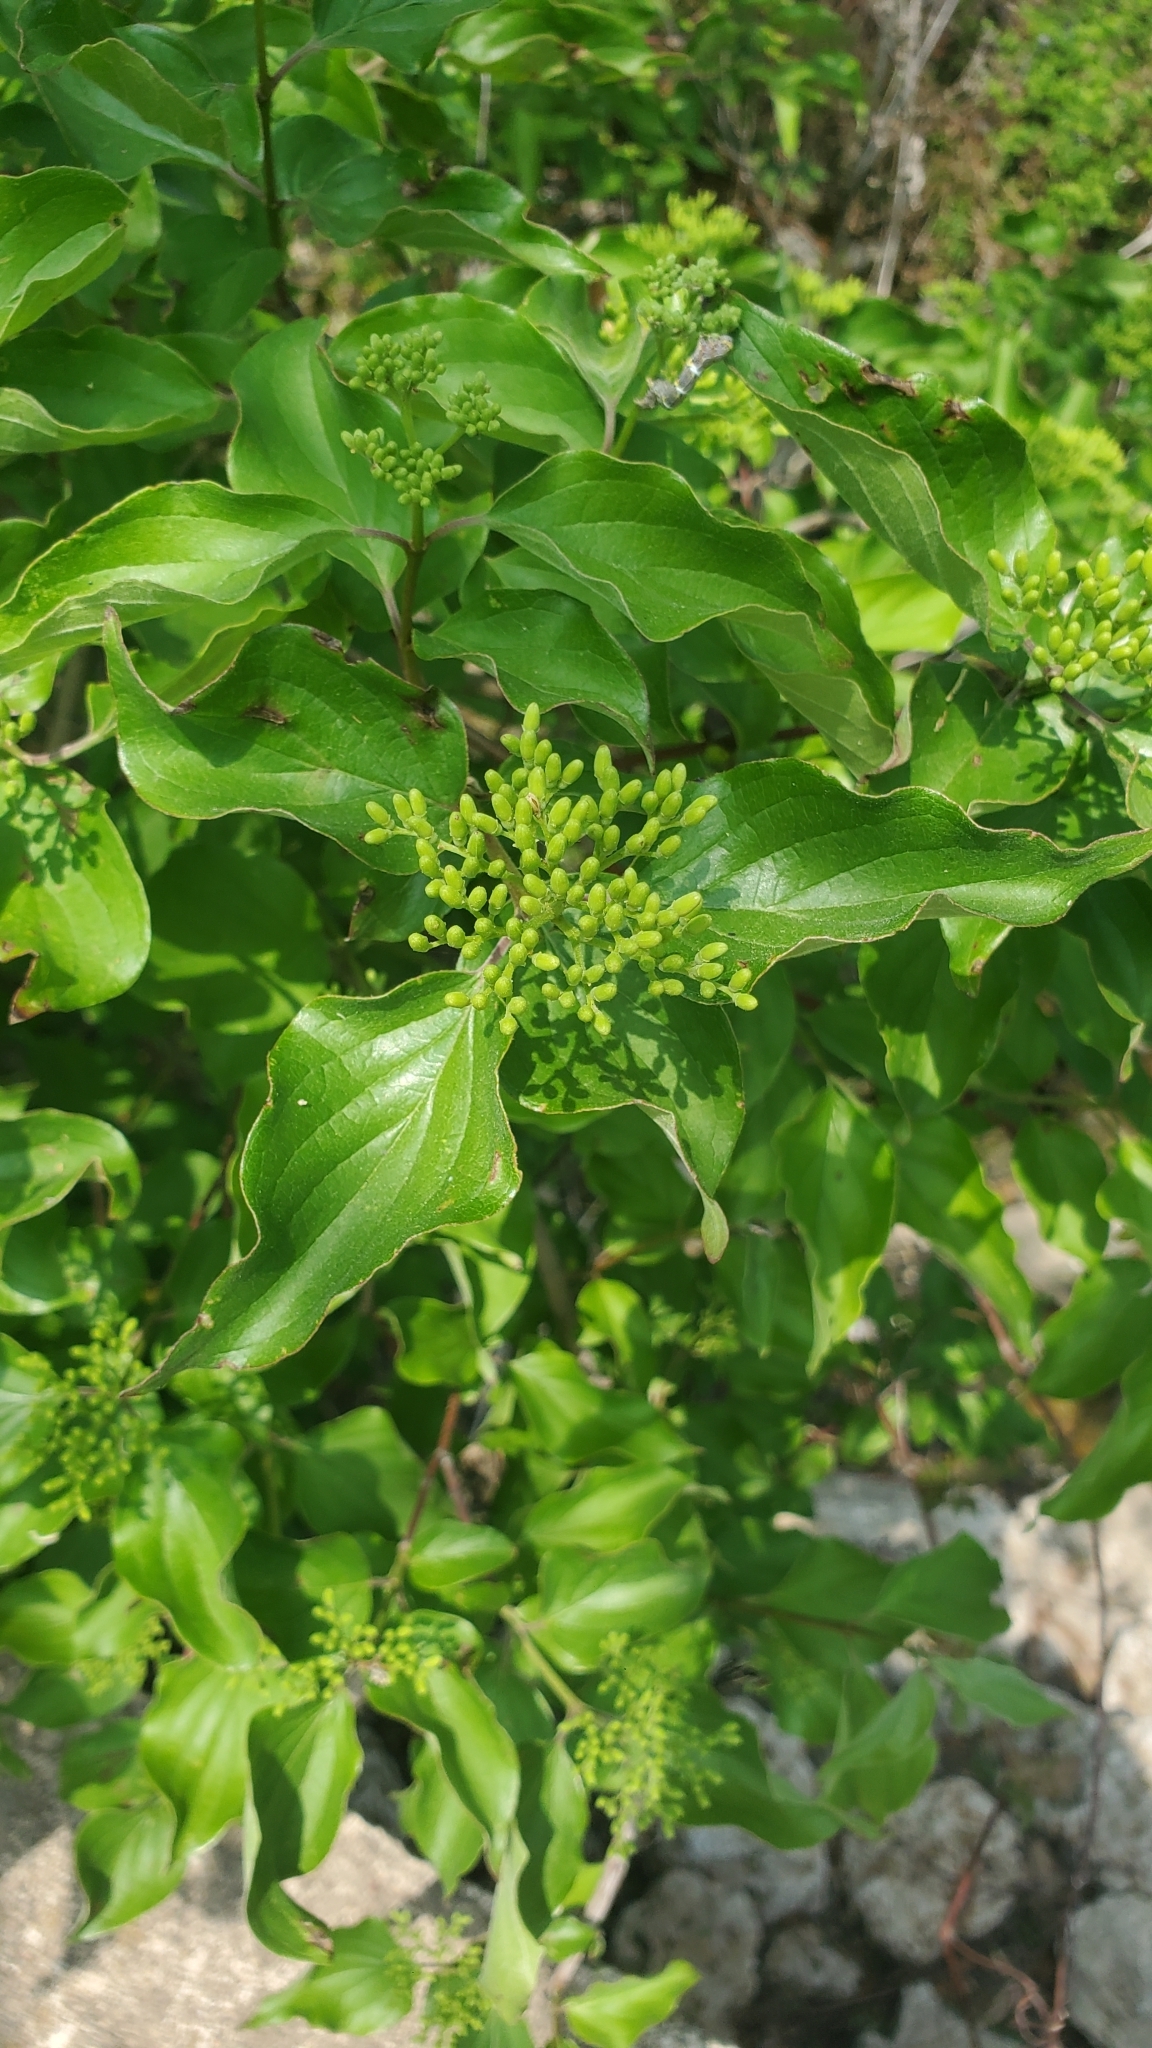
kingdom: Plantae
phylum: Tracheophyta
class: Magnoliopsida
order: Cornales
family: Cornaceae
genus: Cornus
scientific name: Cornus drummondii
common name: Rough-leaf dogwood
